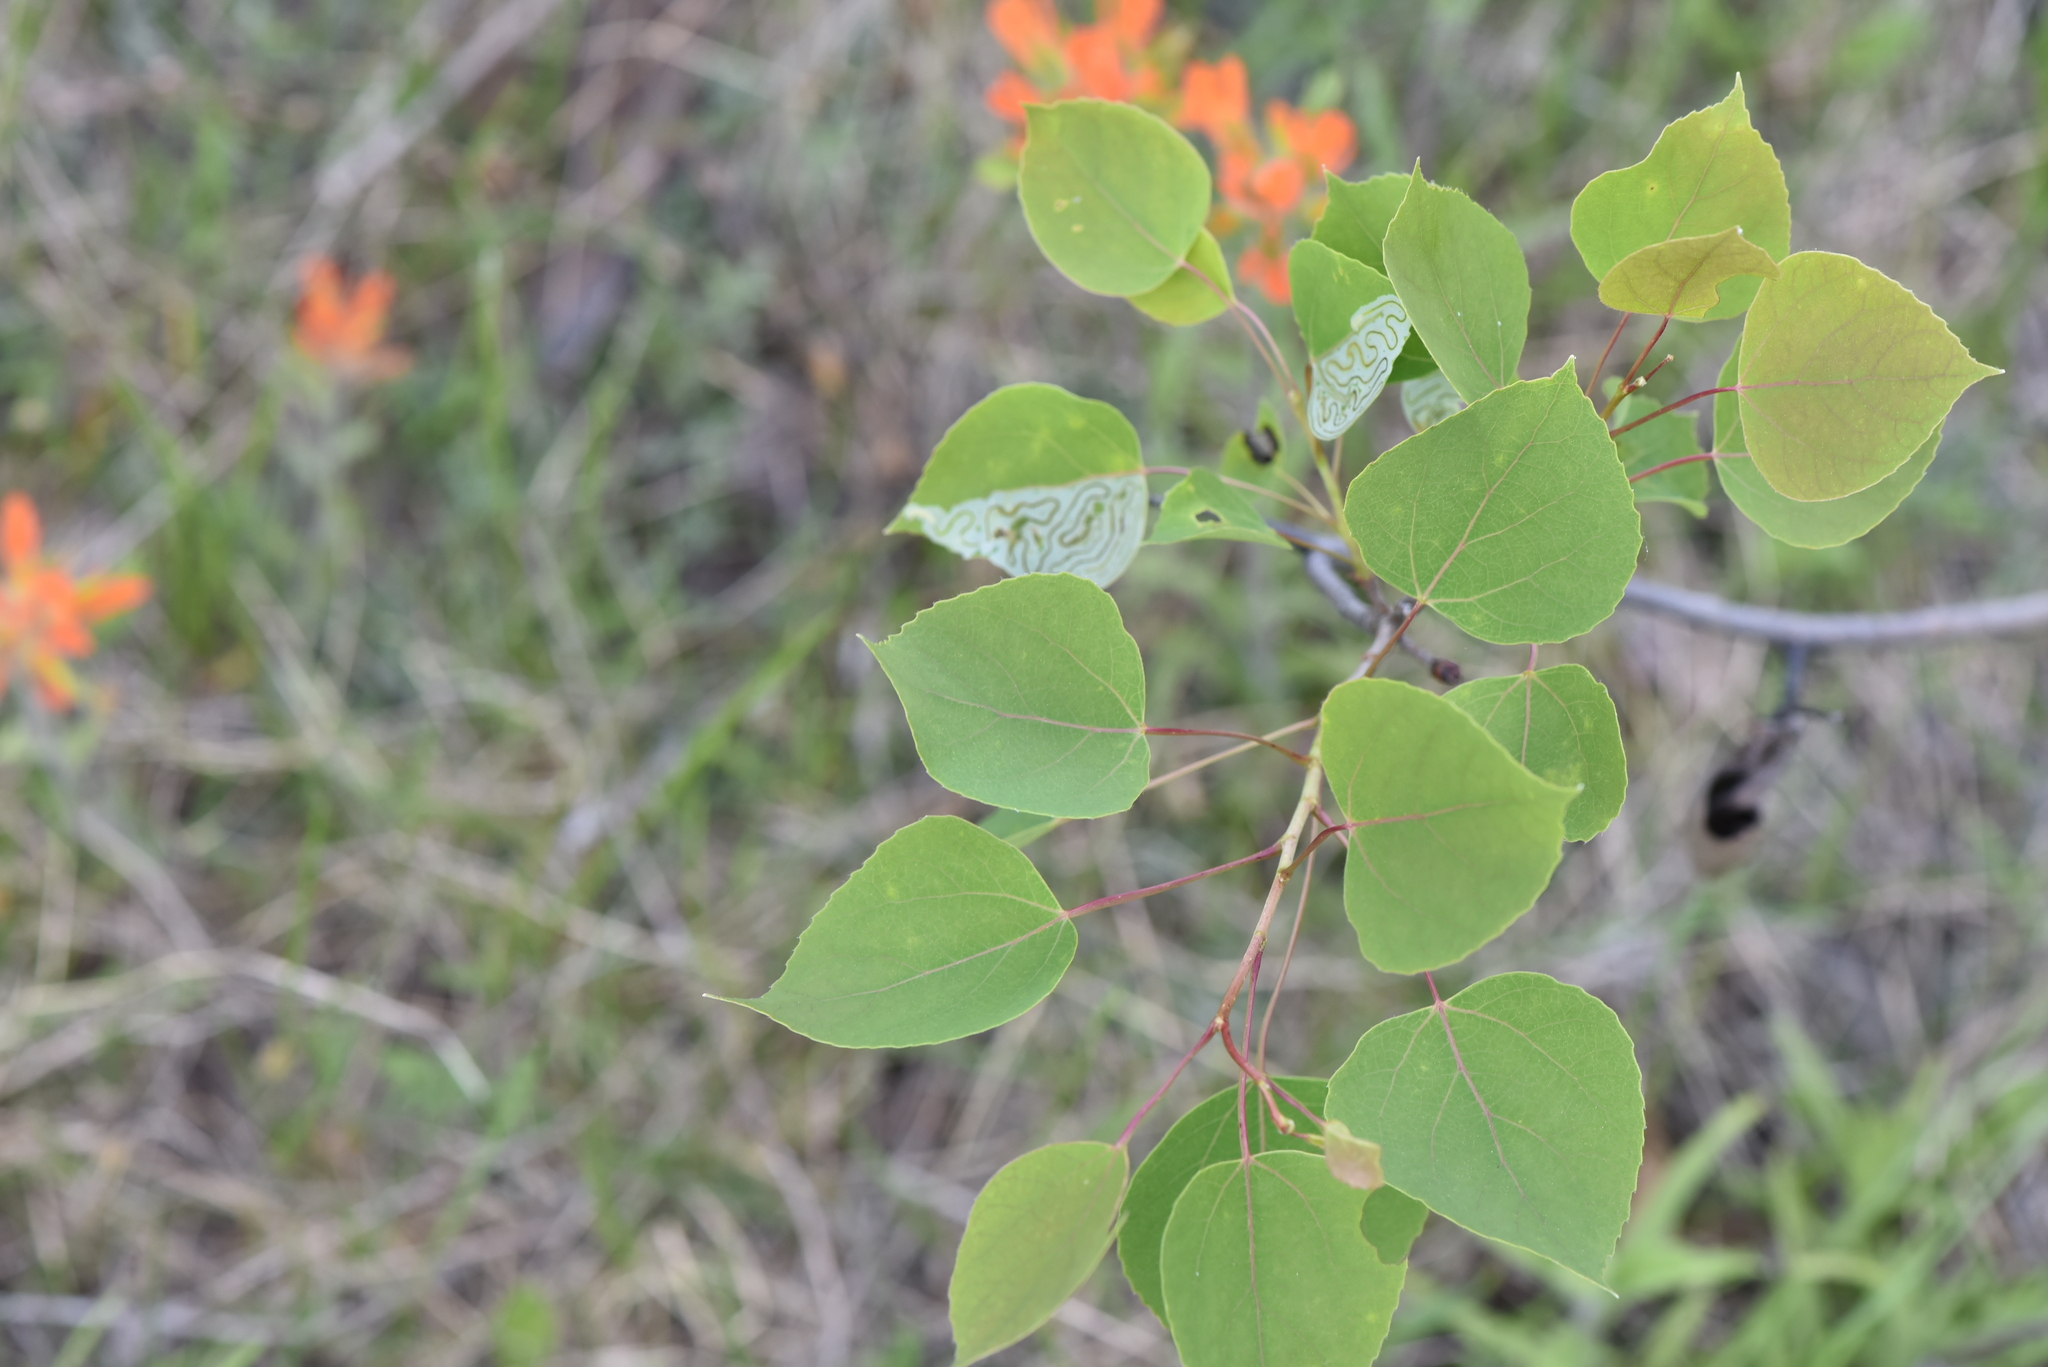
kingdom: Plantae
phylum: Tracheophyta
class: Magnoliopsida
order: Malpighiales
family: Salicaceae
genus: Populus
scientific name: Populus tremuloides
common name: Quaking aspen
